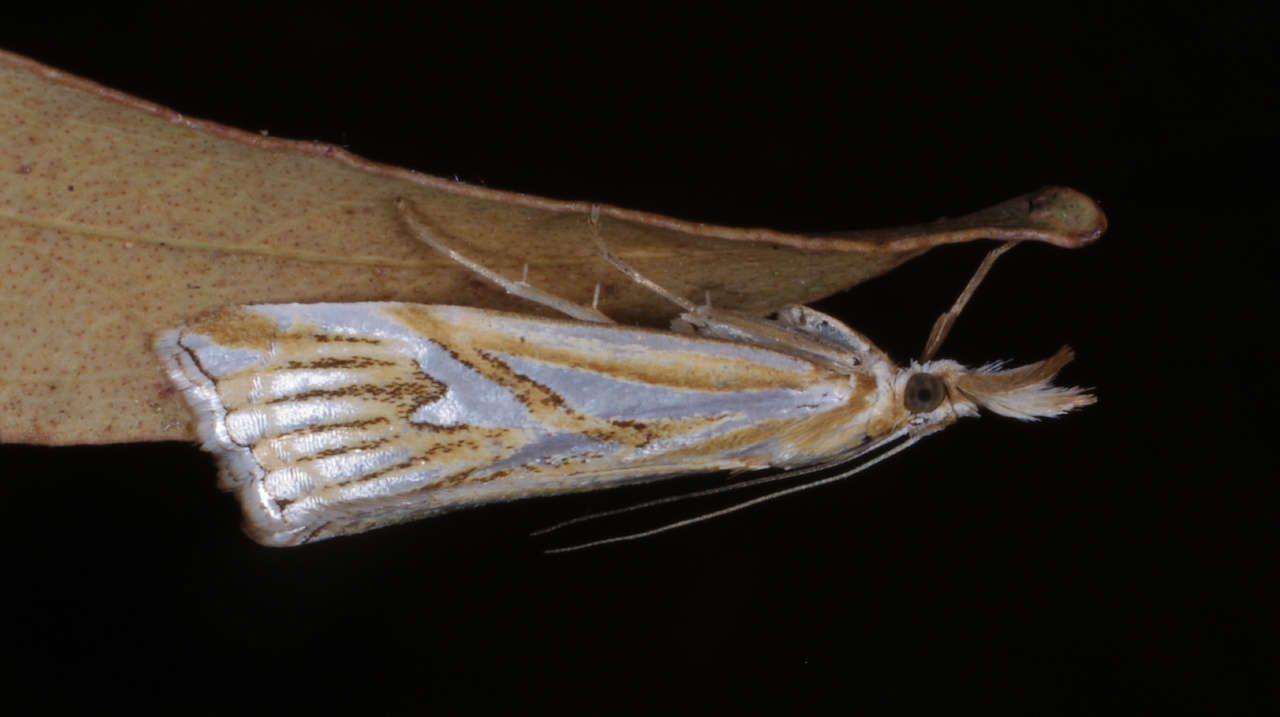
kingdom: Animalia
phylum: Arthropoda
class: Insecta
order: Lepidoptera
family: Crambidae
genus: Hednota
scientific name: Hednota pleniferellus
